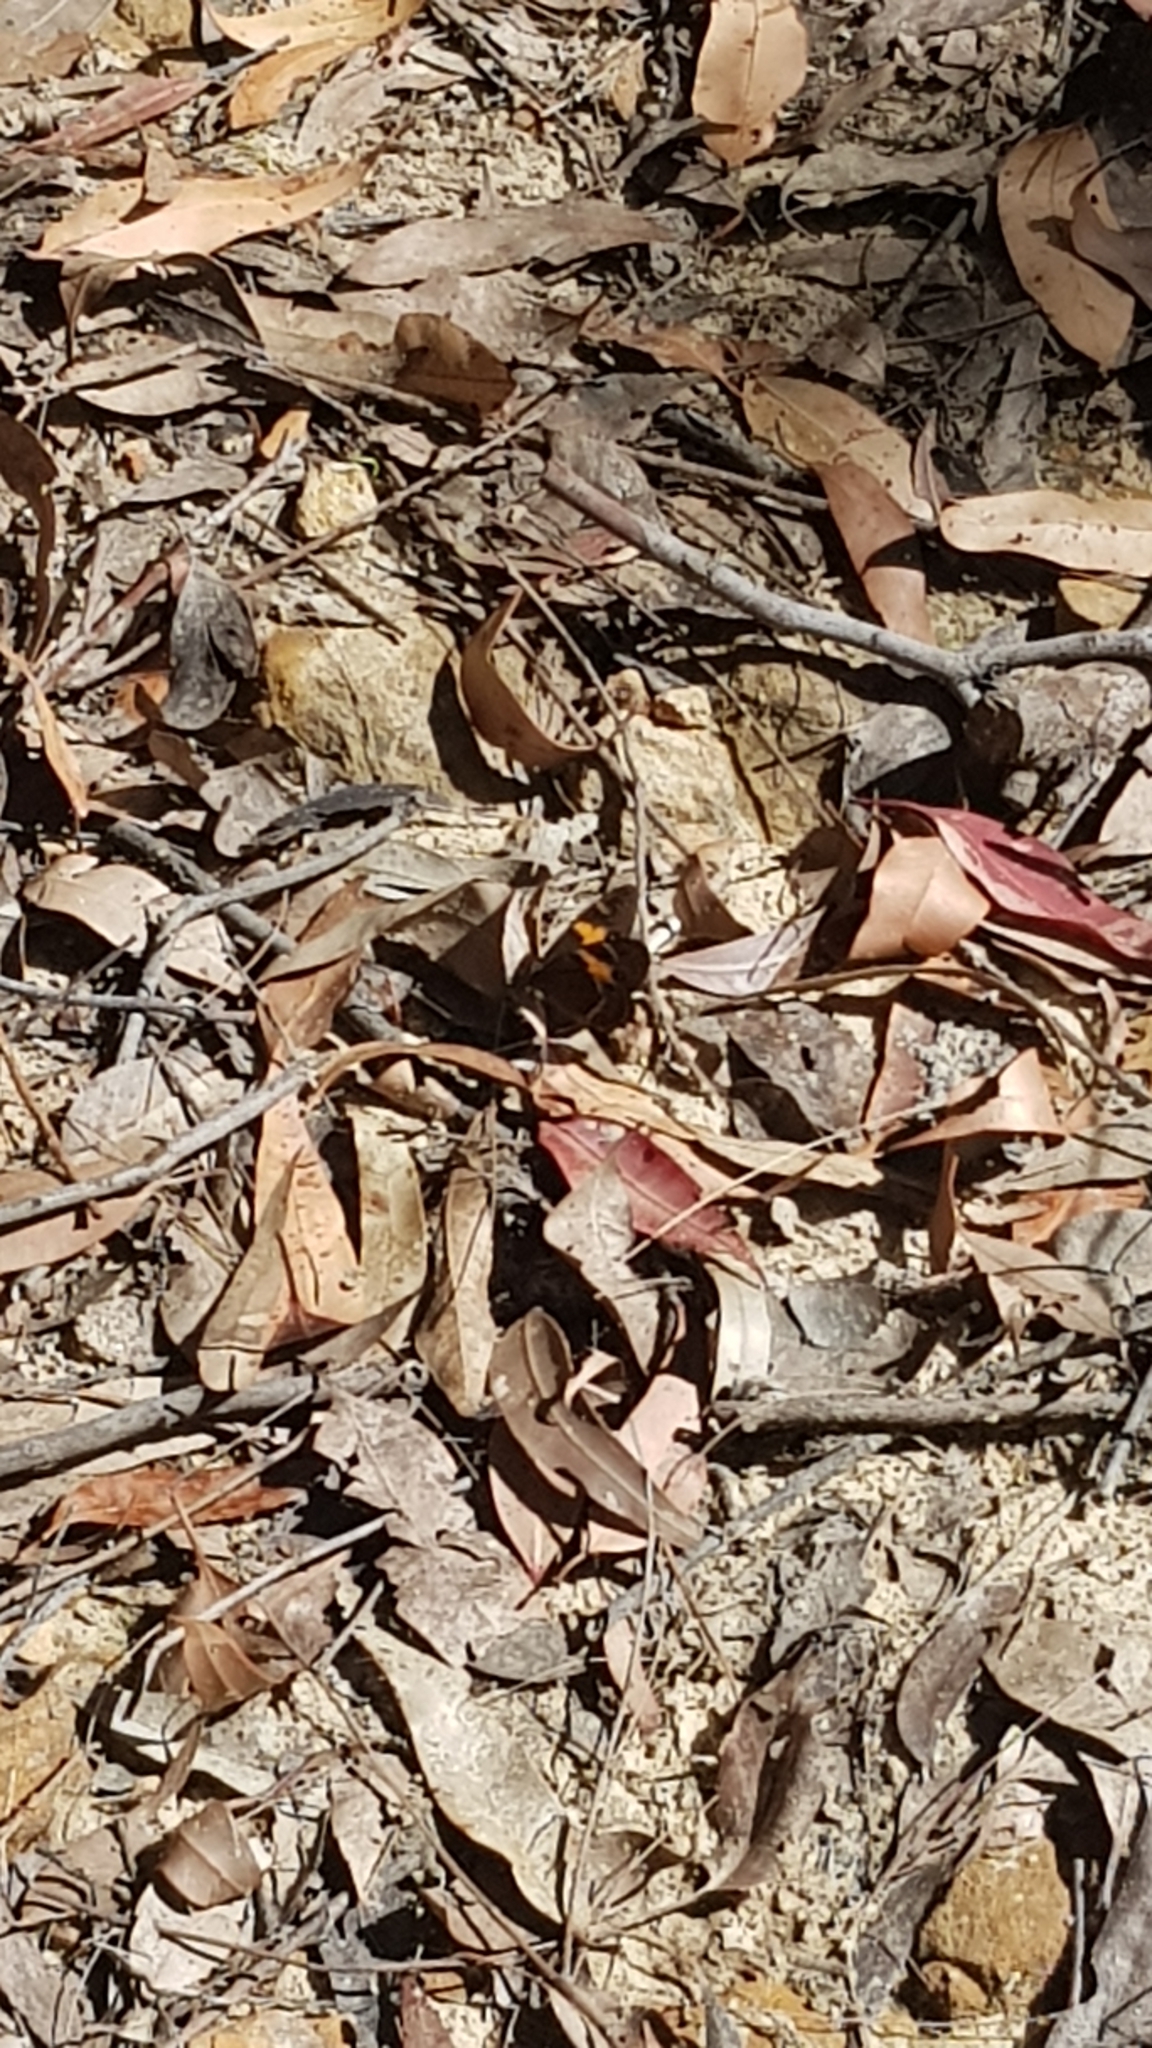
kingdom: Animalia
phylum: Arthropoda
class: Insecta
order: Lepidoptera
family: Nymphalidae
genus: Tisiphone
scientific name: Tisiphone abeona
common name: Swordgrass brown
